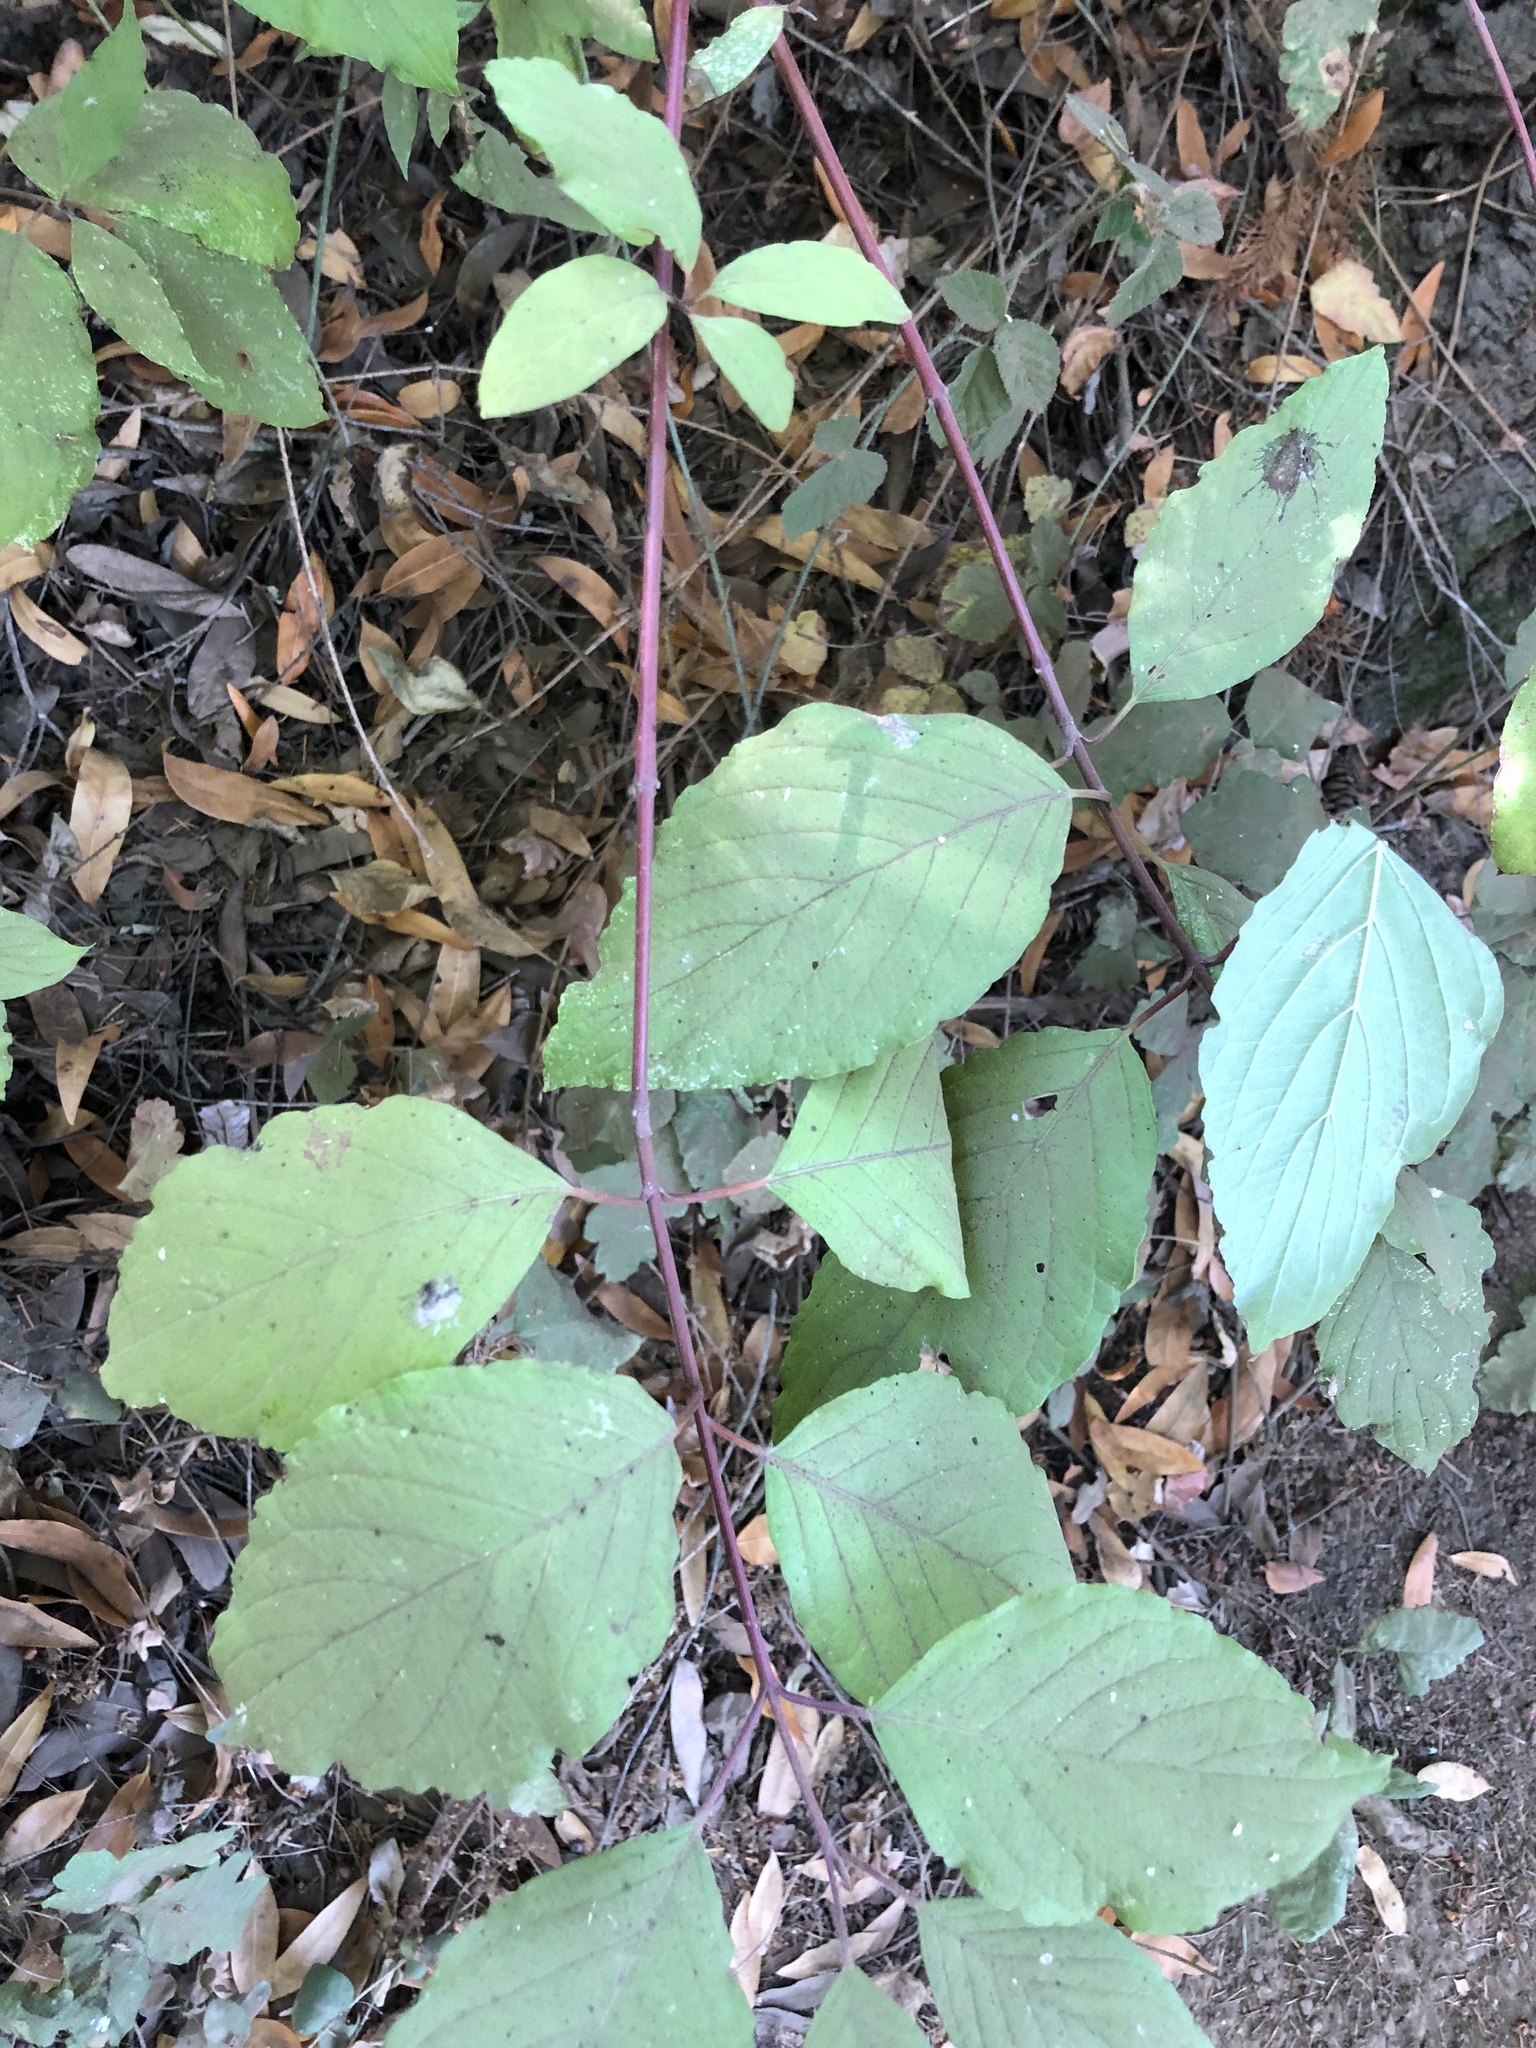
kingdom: Plantae
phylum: Tracheophyta
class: Magnoliopsida
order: Cornales
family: Cornaceae
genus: Cornus
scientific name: Cornus sericea
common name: Red-osier dogwood
